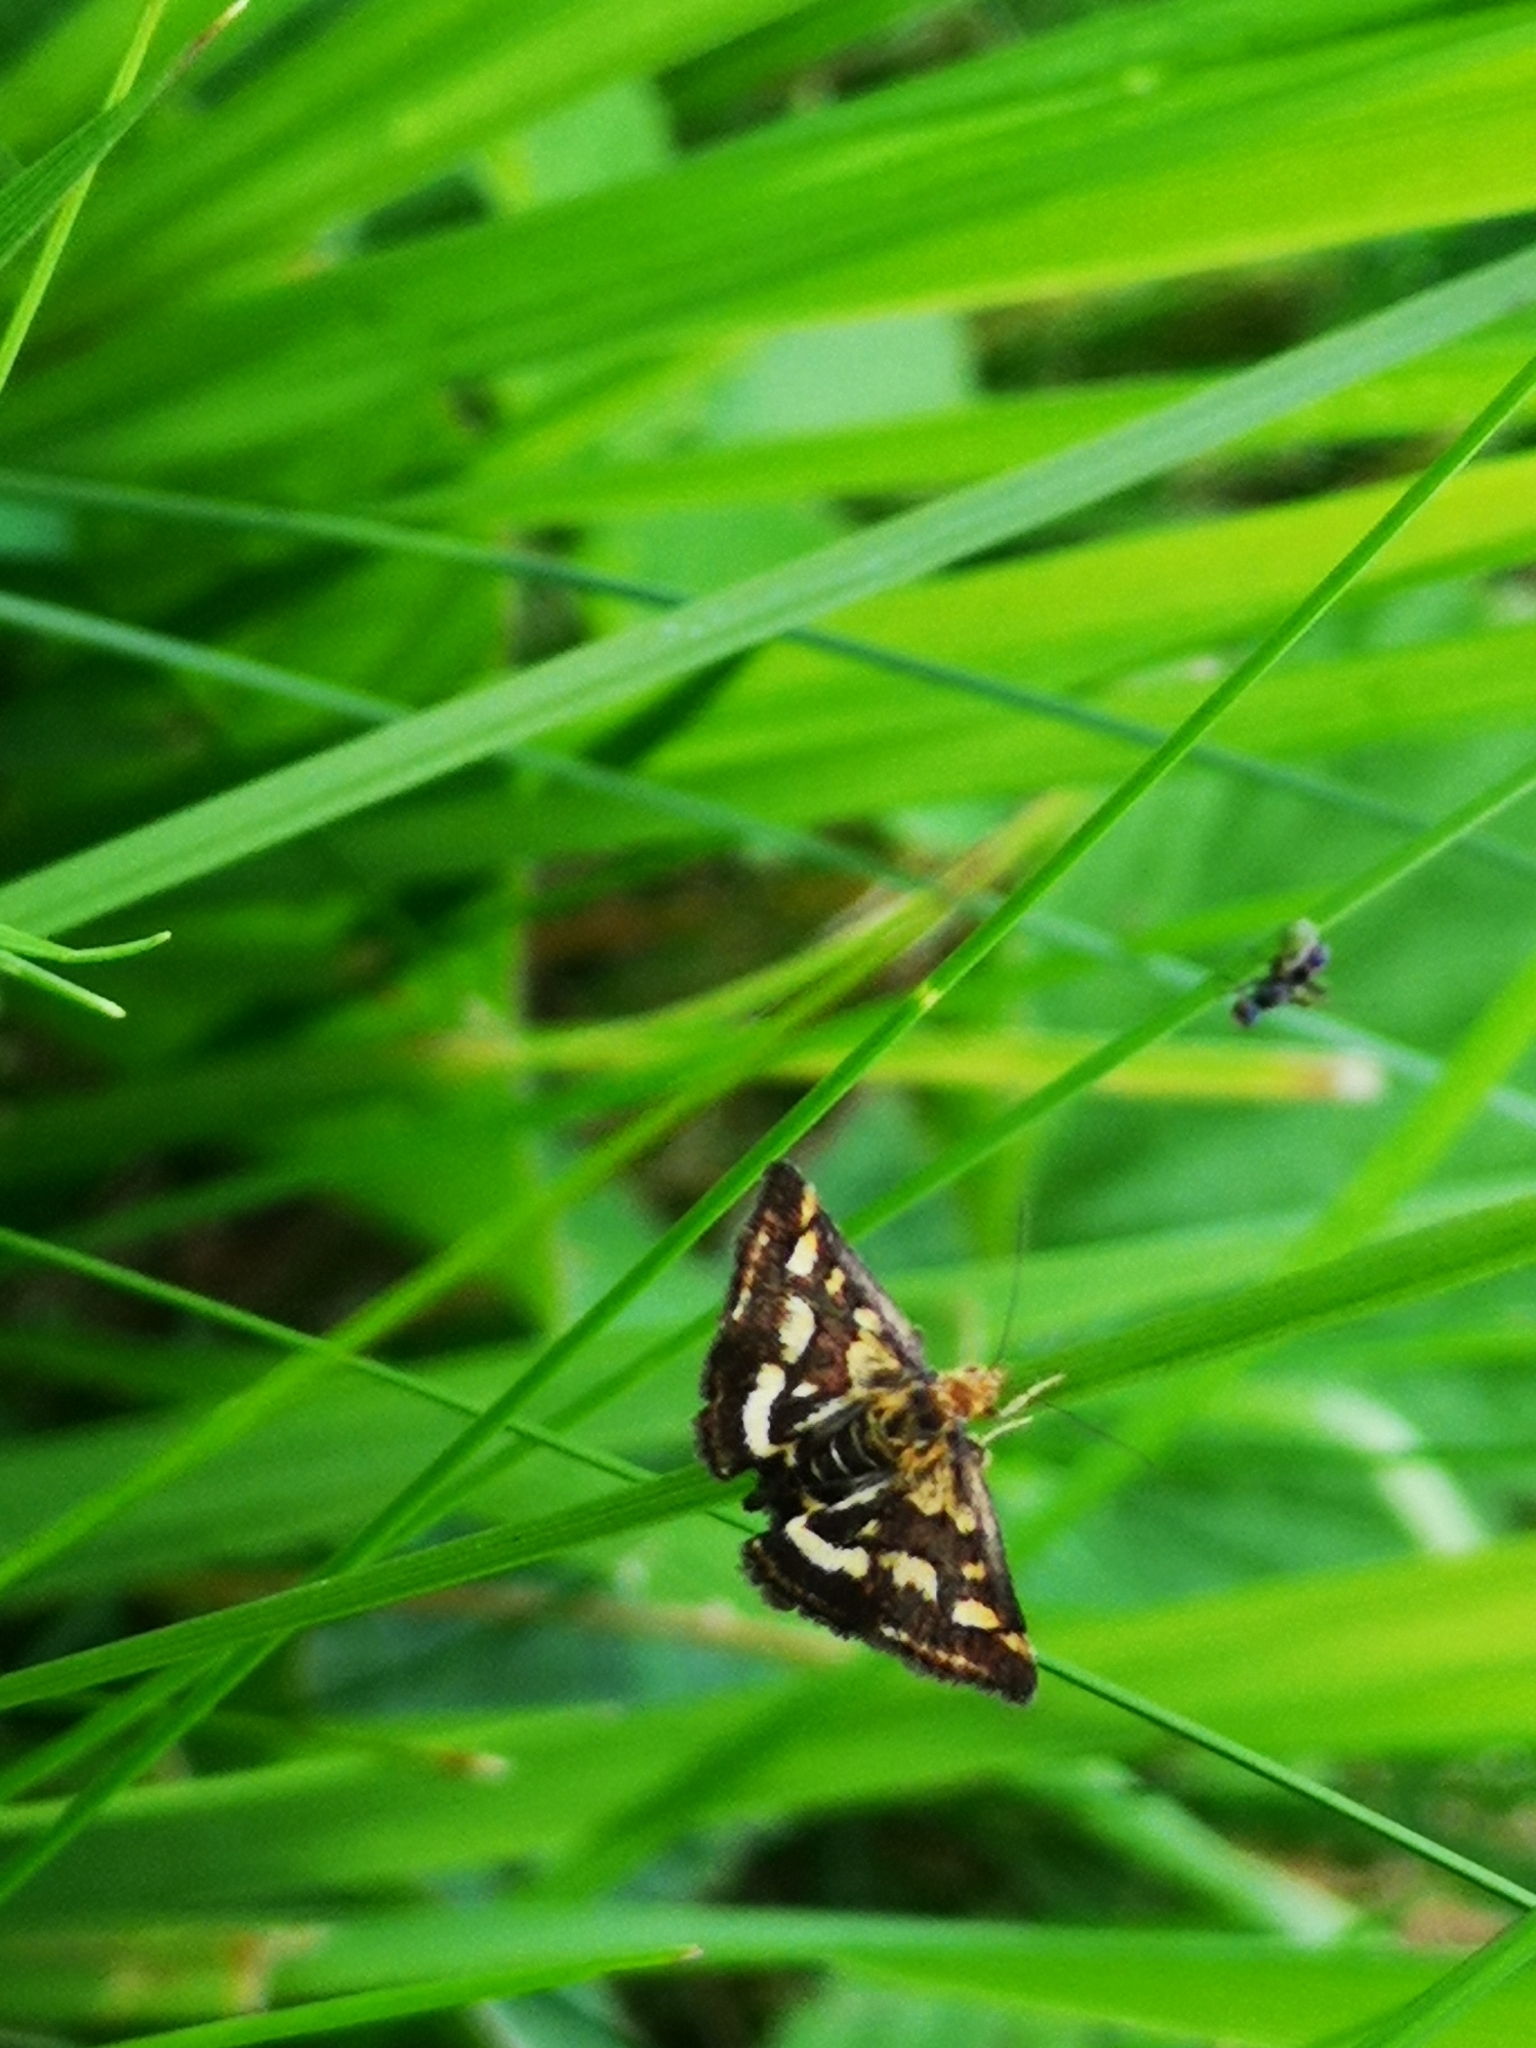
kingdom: Animalia
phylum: Arthropoda
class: Insecta
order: Lepidoptera
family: Crambidae
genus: Pyrausta
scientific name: Pyrausta purpuralis
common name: Common purple & gold
